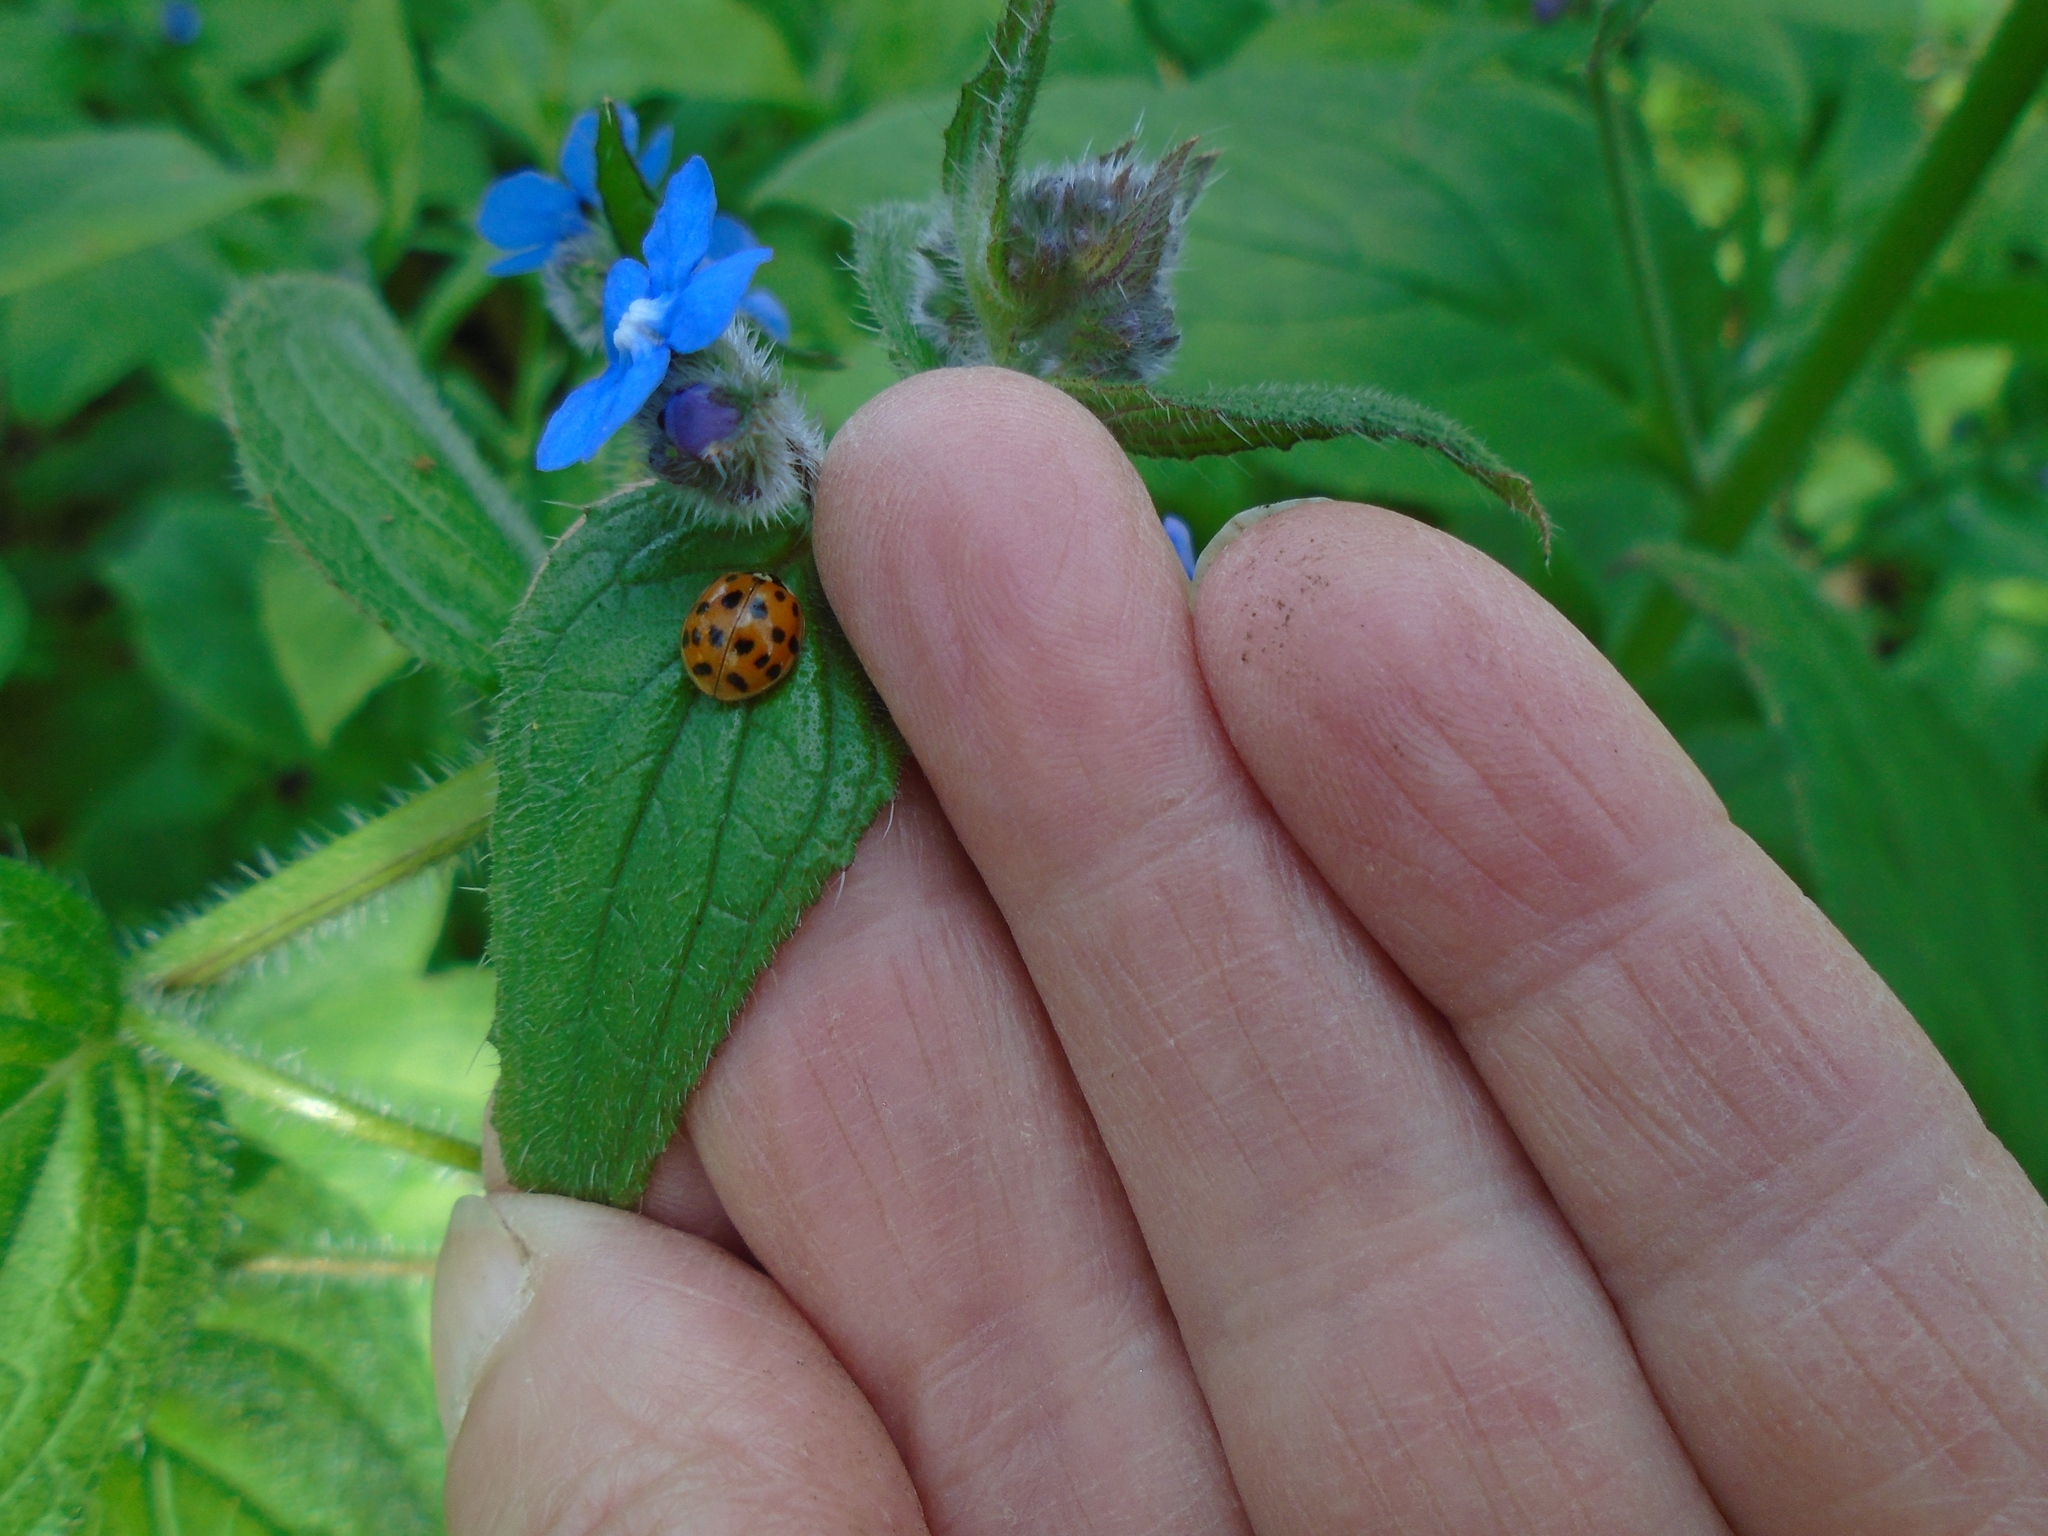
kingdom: Animalia
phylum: Arthropoda
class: Insecta
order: Coleoptera
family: Coccinellidae
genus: Harmonia
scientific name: Harmonia axyridis
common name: Harlequin ladybird
